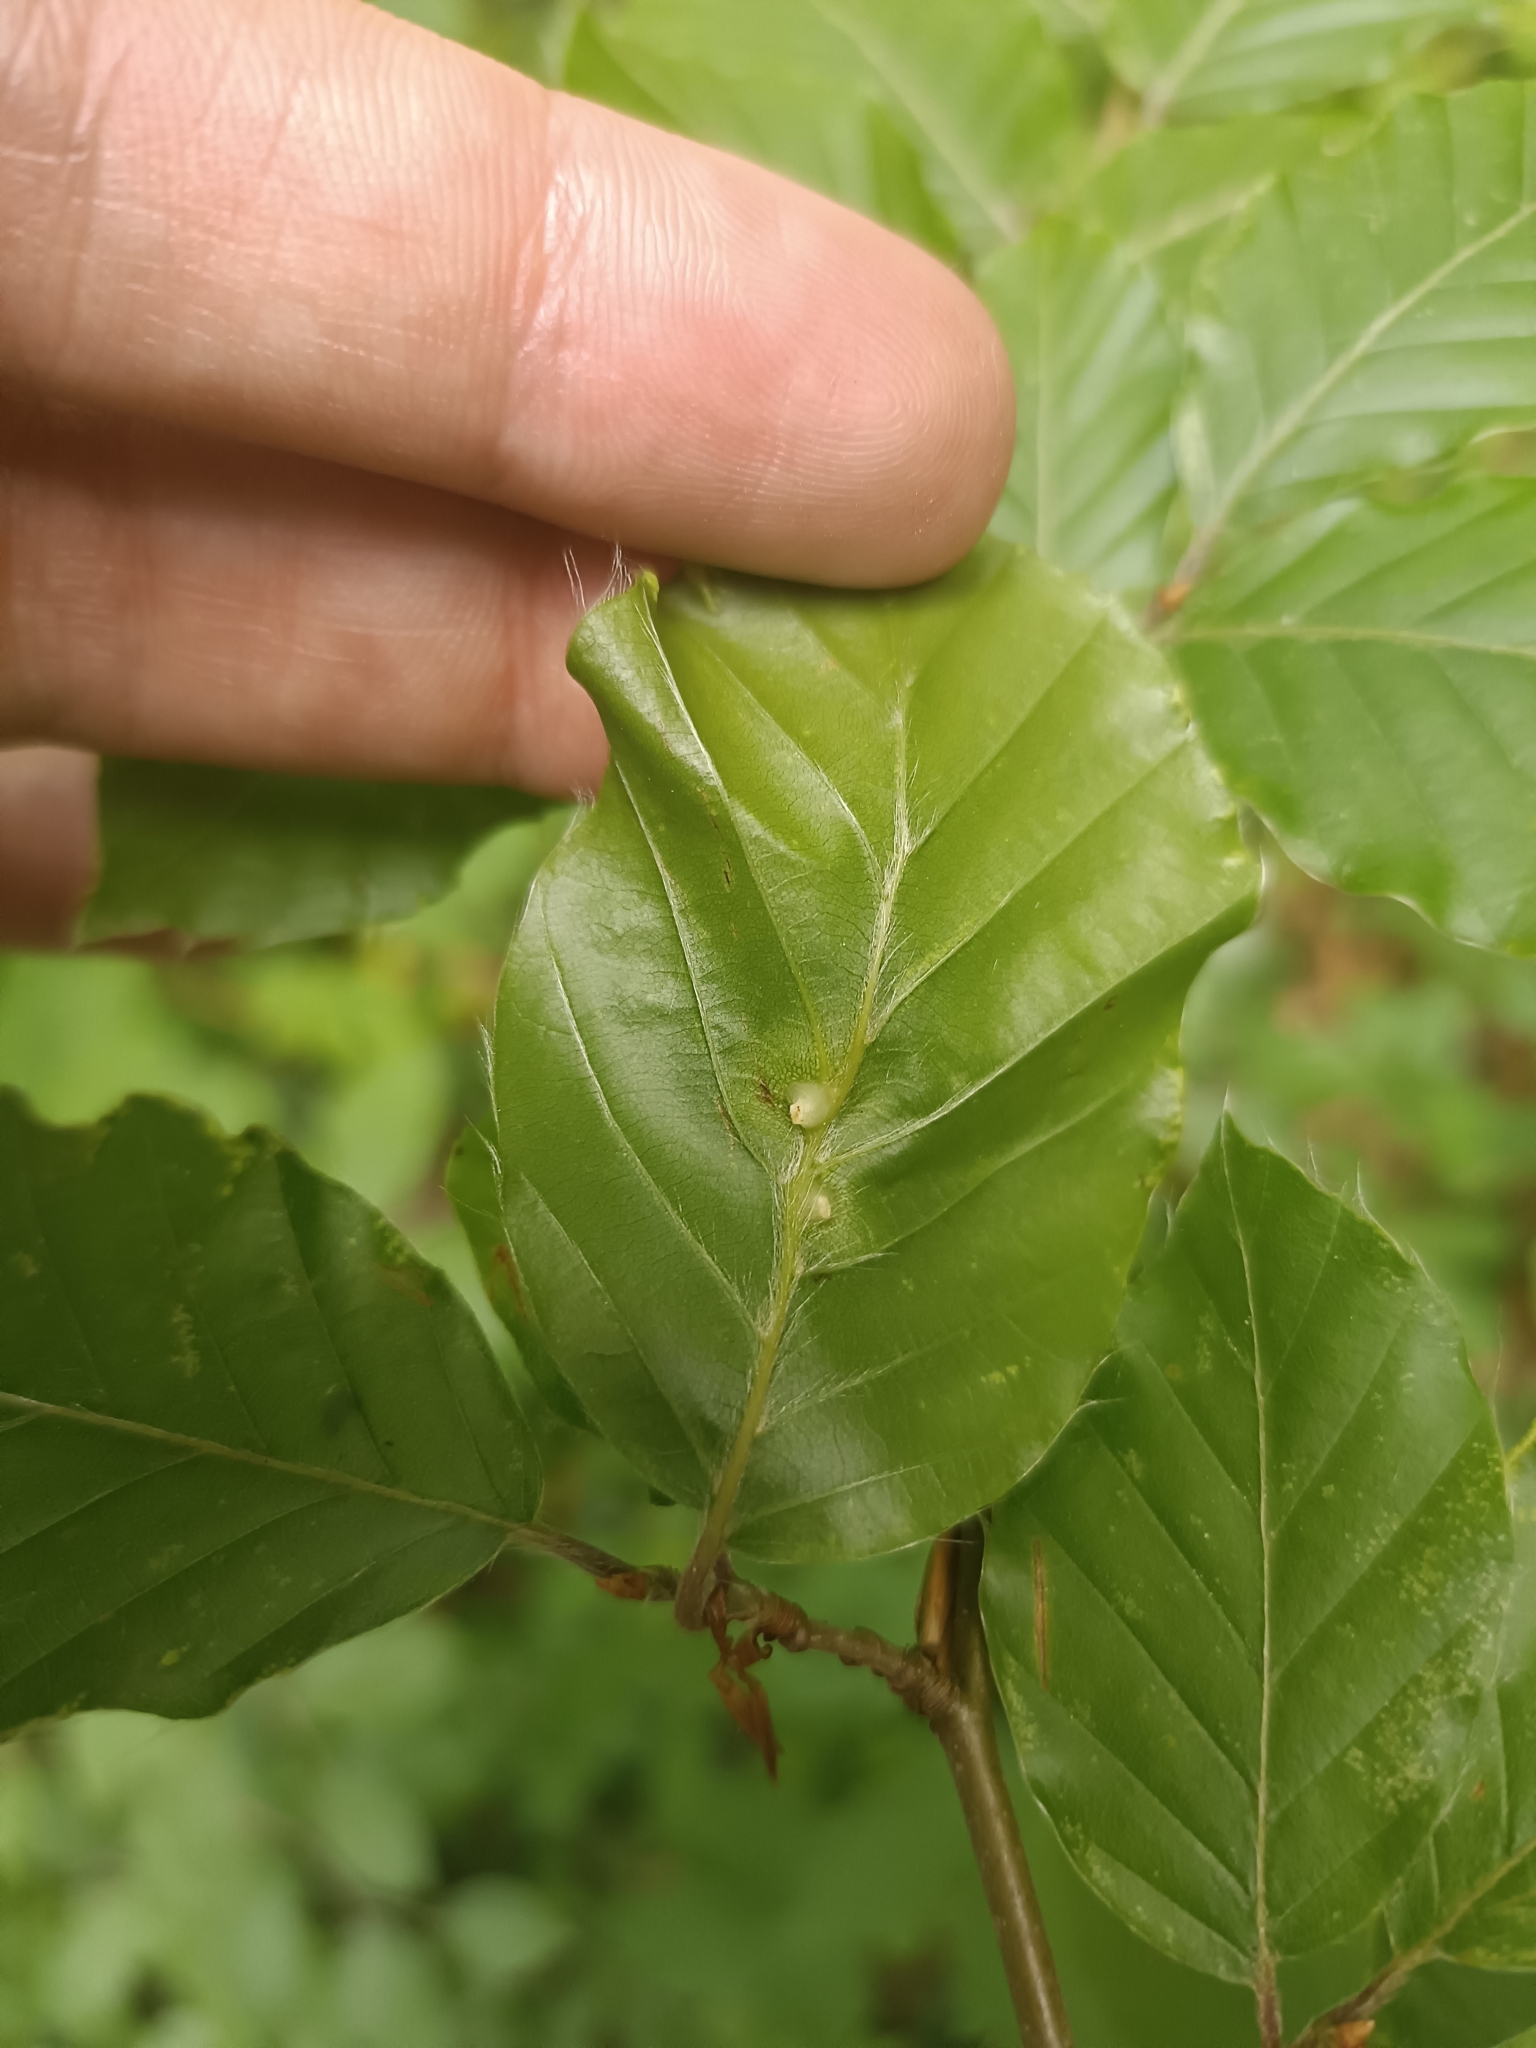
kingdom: Animalia
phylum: Arthropoda
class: Insecta
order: Diptera
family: Cecidomyiidae
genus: Mikiola
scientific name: Mikiola fagi
